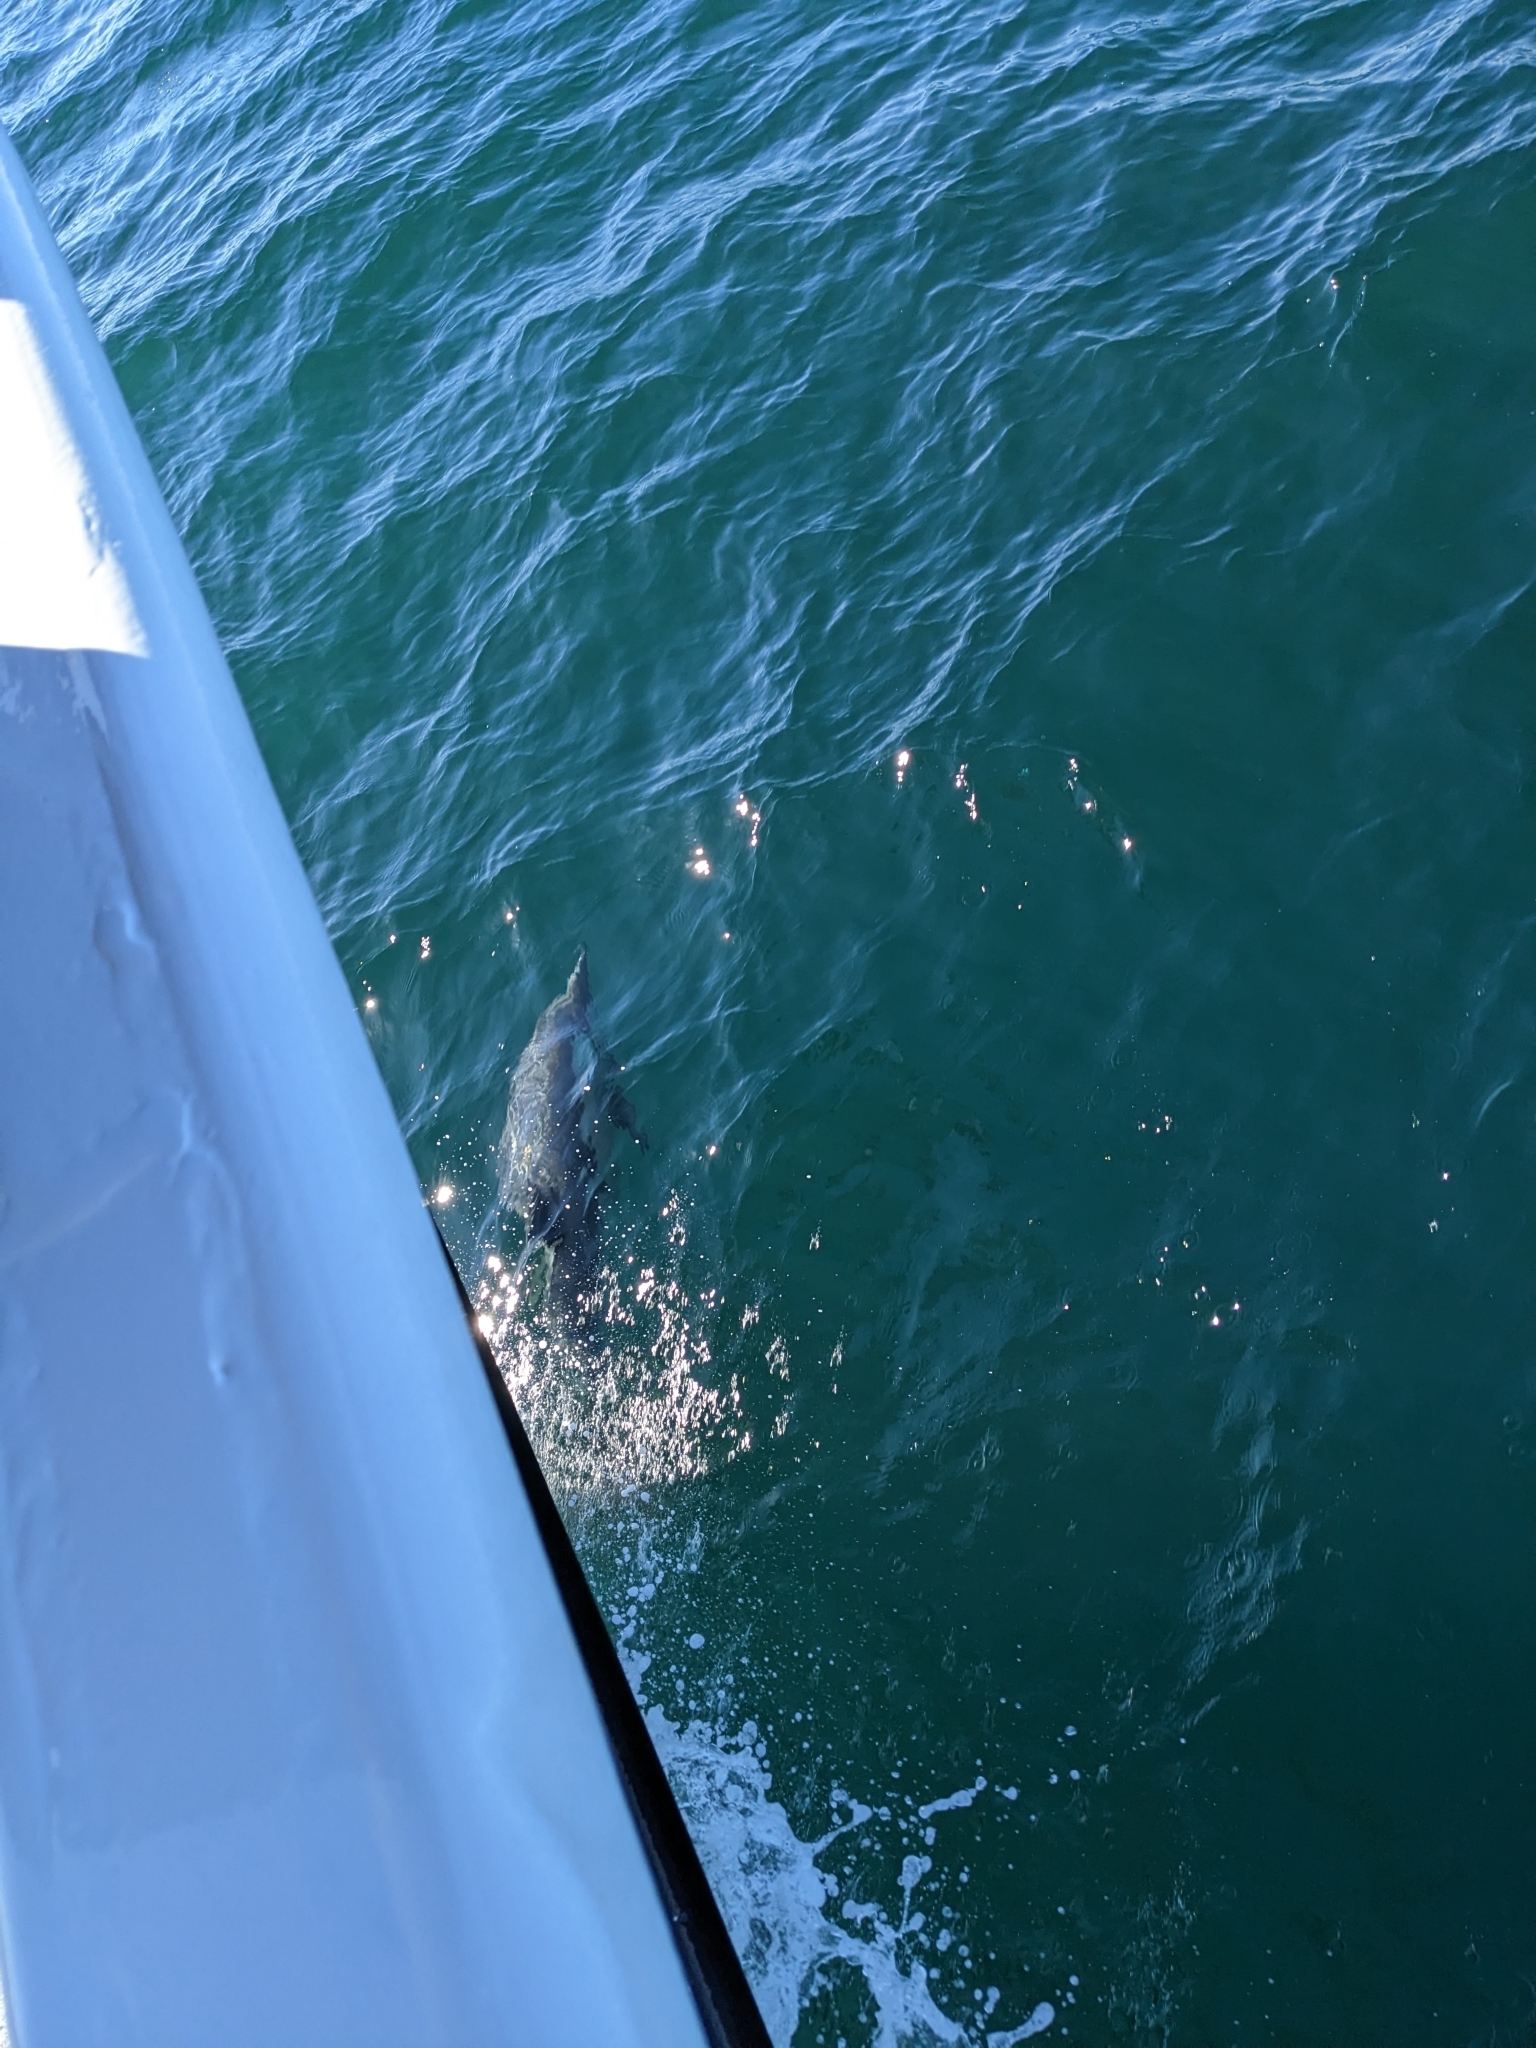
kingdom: Animalia
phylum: Chordata
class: Mammalia
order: Cetacea
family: Delphinidae
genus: Delphinus
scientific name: Delphinus delphis
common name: Common dolphin
